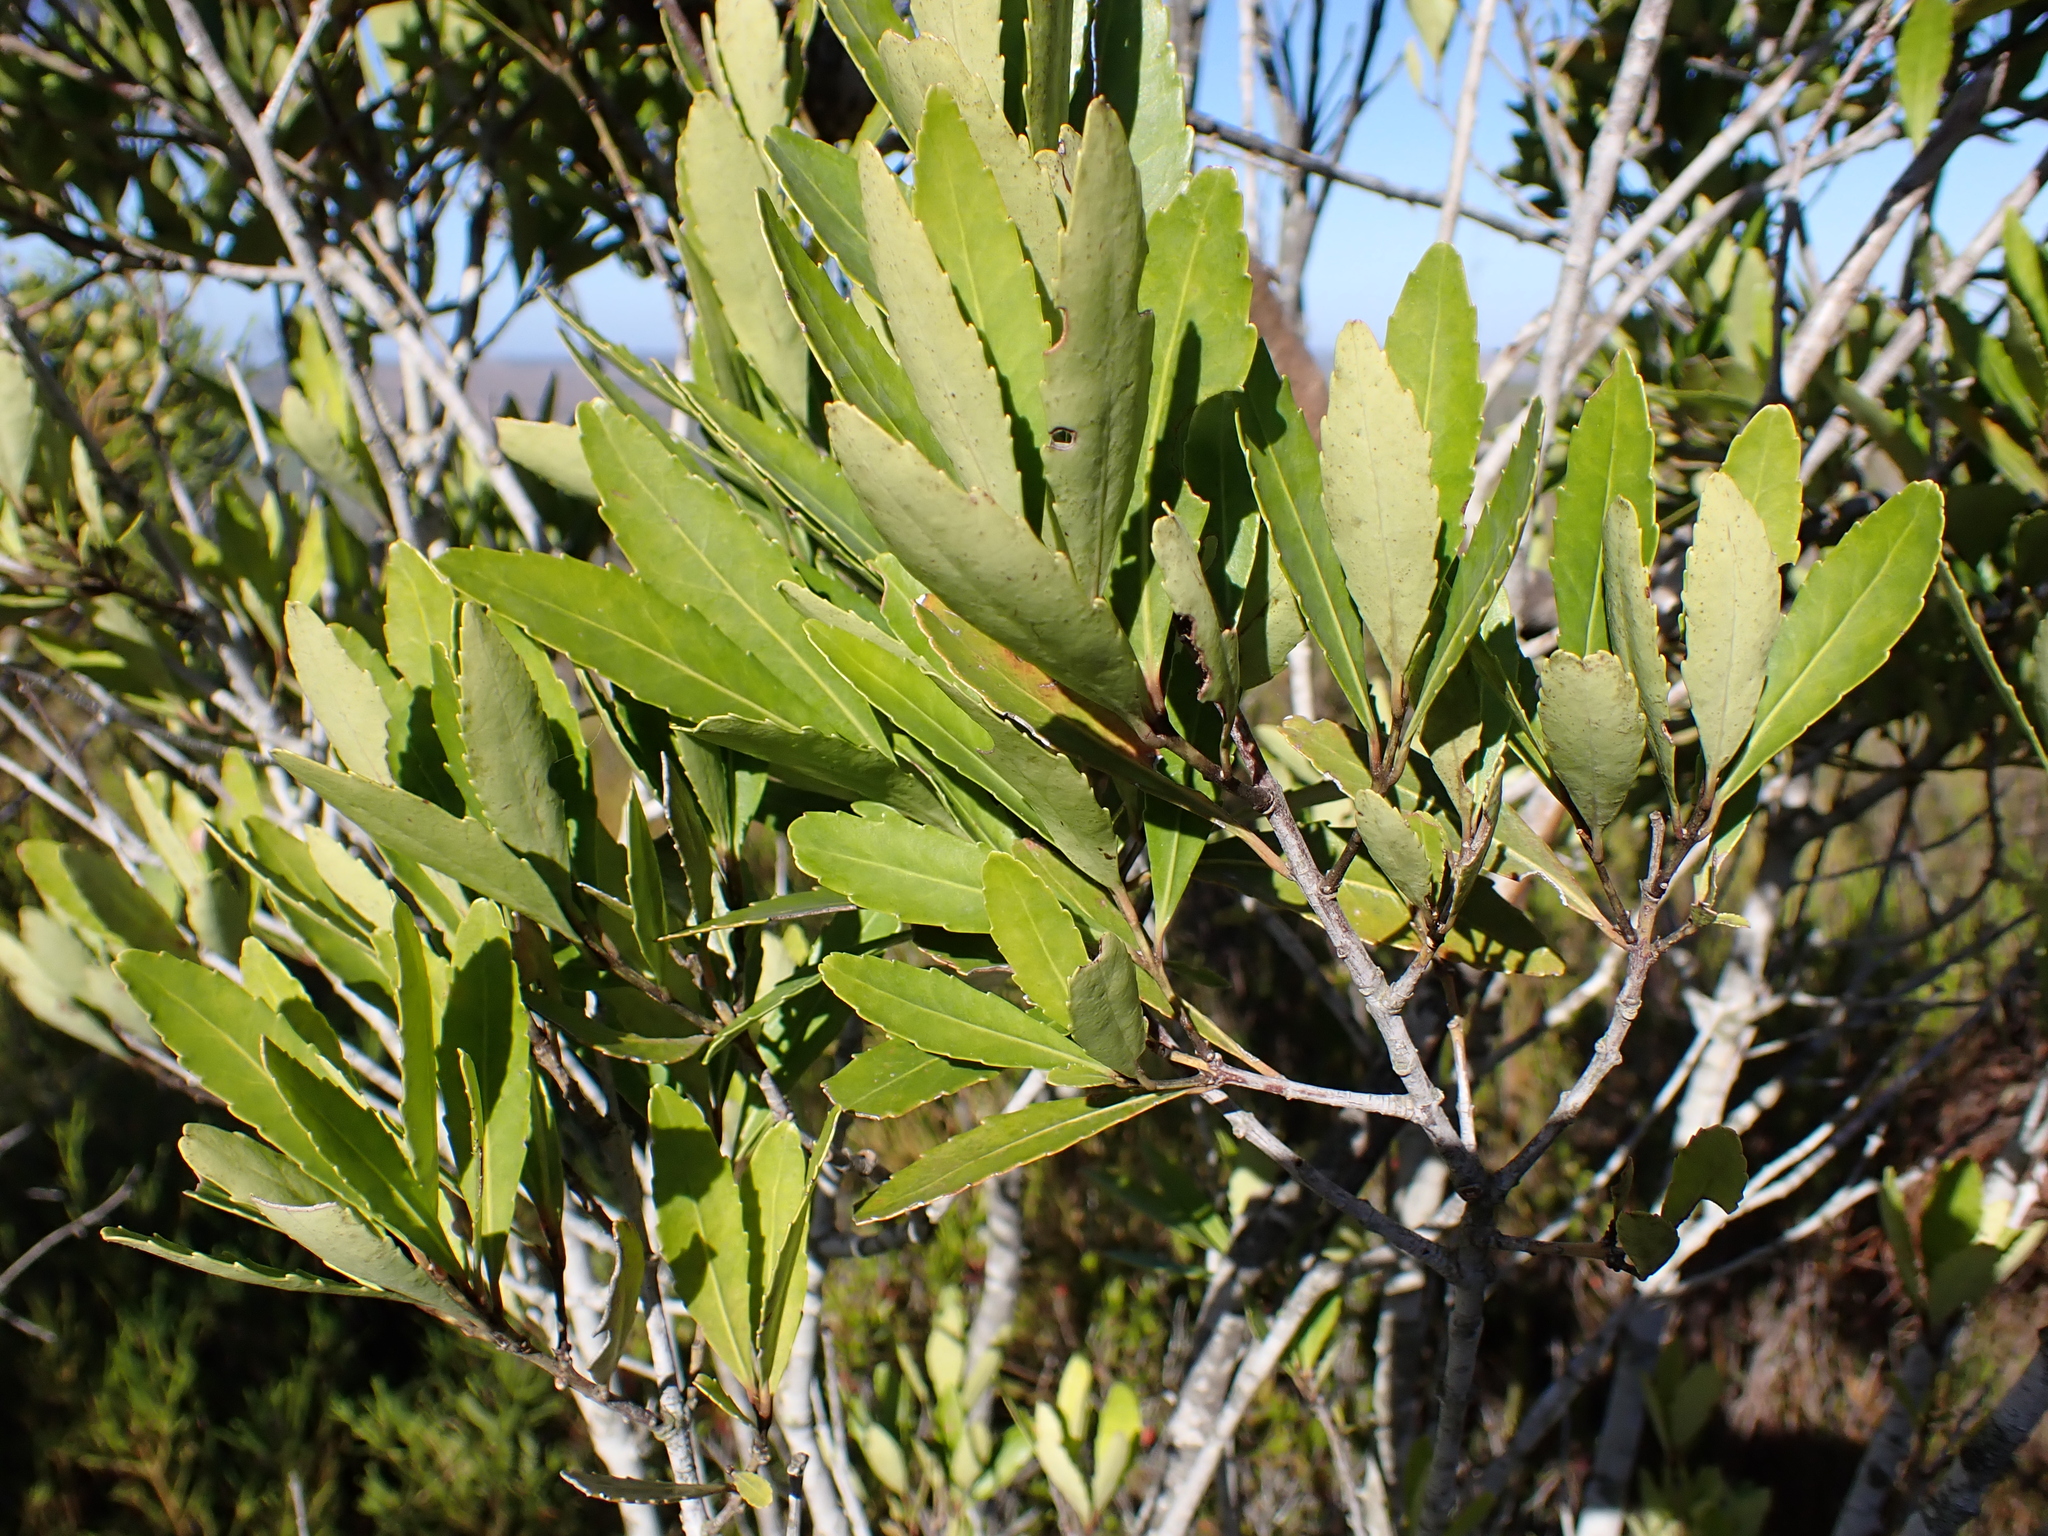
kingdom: Plantae
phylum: Tracheophyta
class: Magnoliopsida
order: Celastrales
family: Celastraceae
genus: Elaeodendron
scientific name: Elaeodendron schinoides
